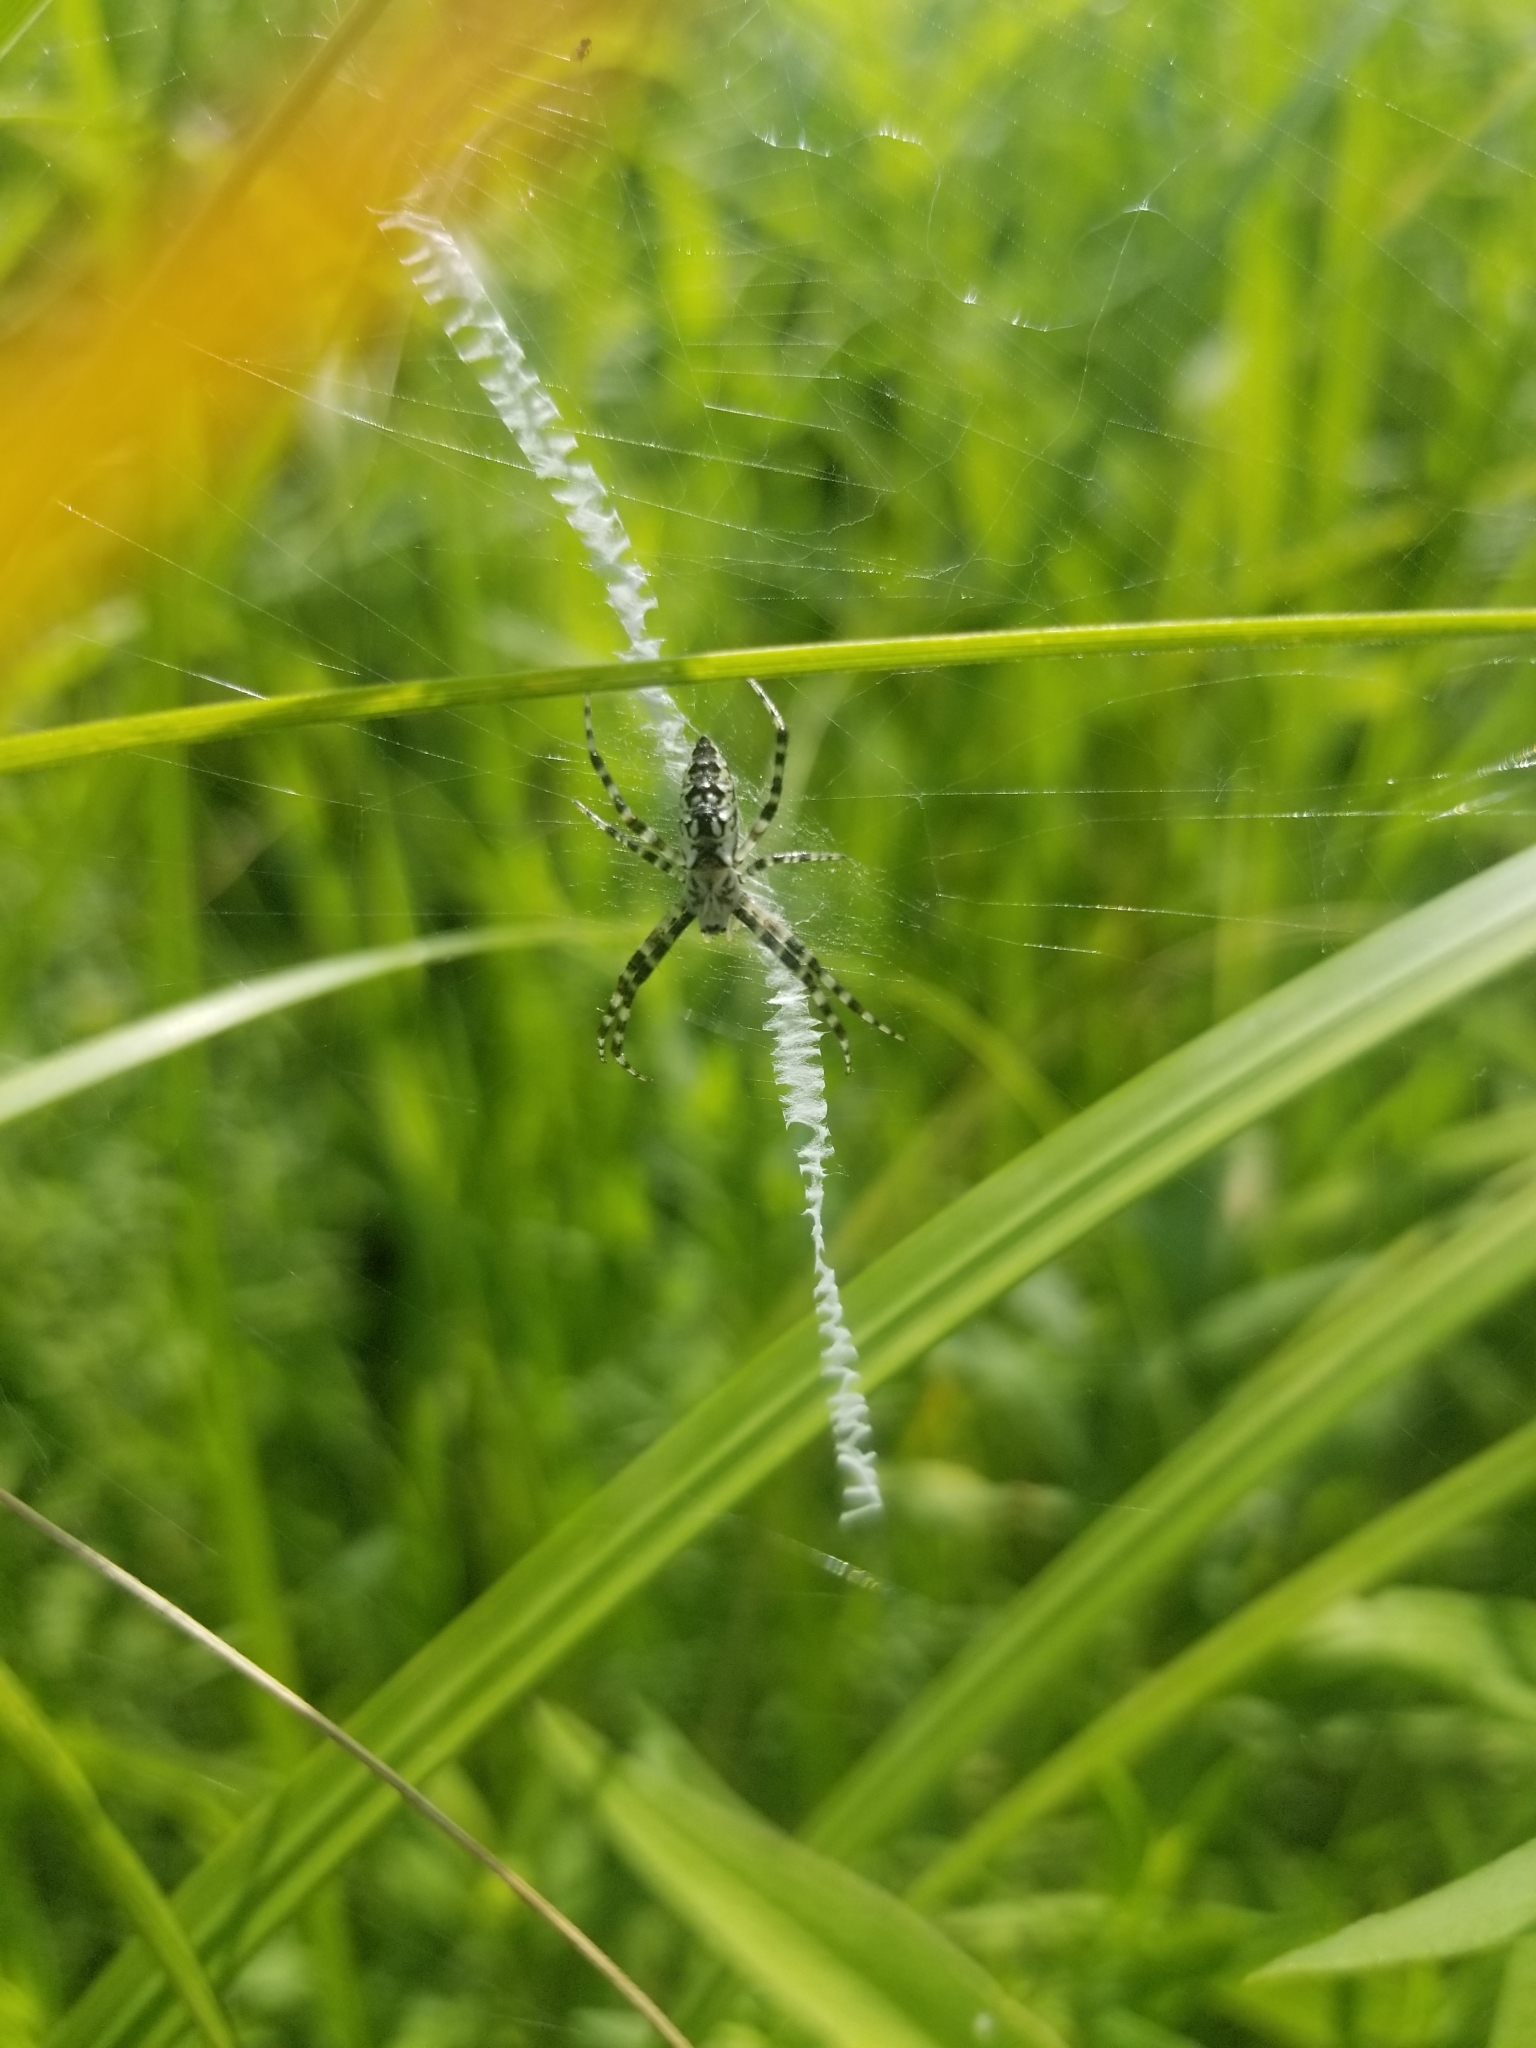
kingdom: Animalia
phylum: Arthropoda
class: Arachnida
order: Araneae
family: Araneidae
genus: Argiope
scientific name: Argiope aurantia
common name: Orb weavers
